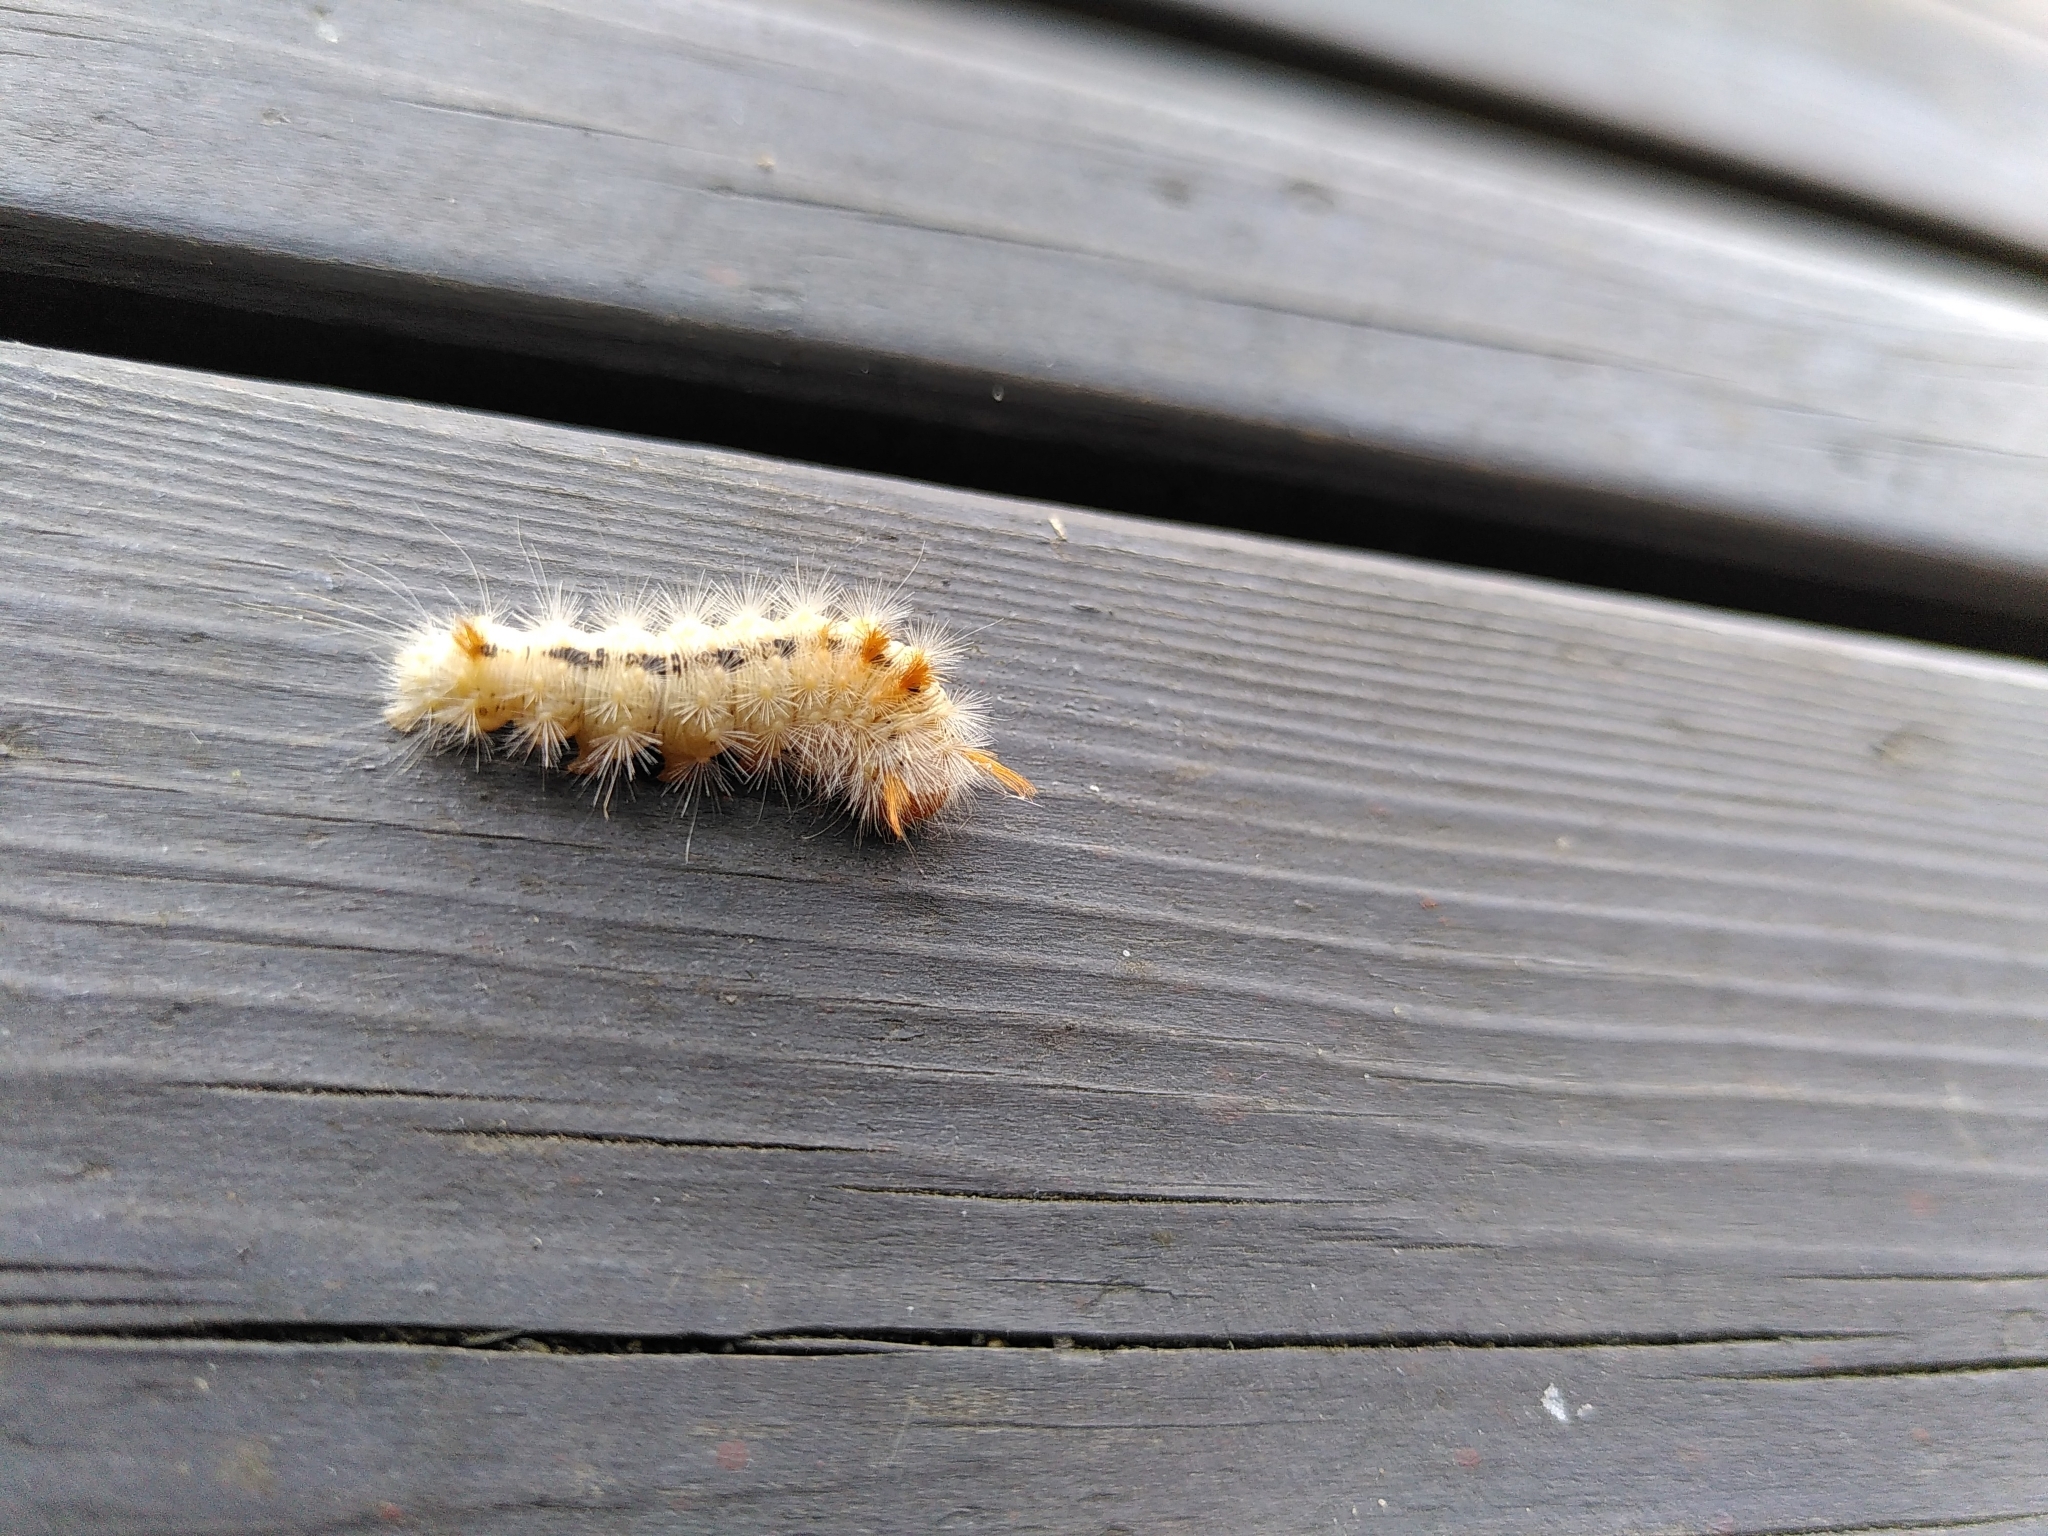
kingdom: Animalia
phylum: Arthropoda
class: Insecta
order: Lepidoptera
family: Noctuidae
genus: Colocasia
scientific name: Colocasia coryli
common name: Nut-tree tussock
